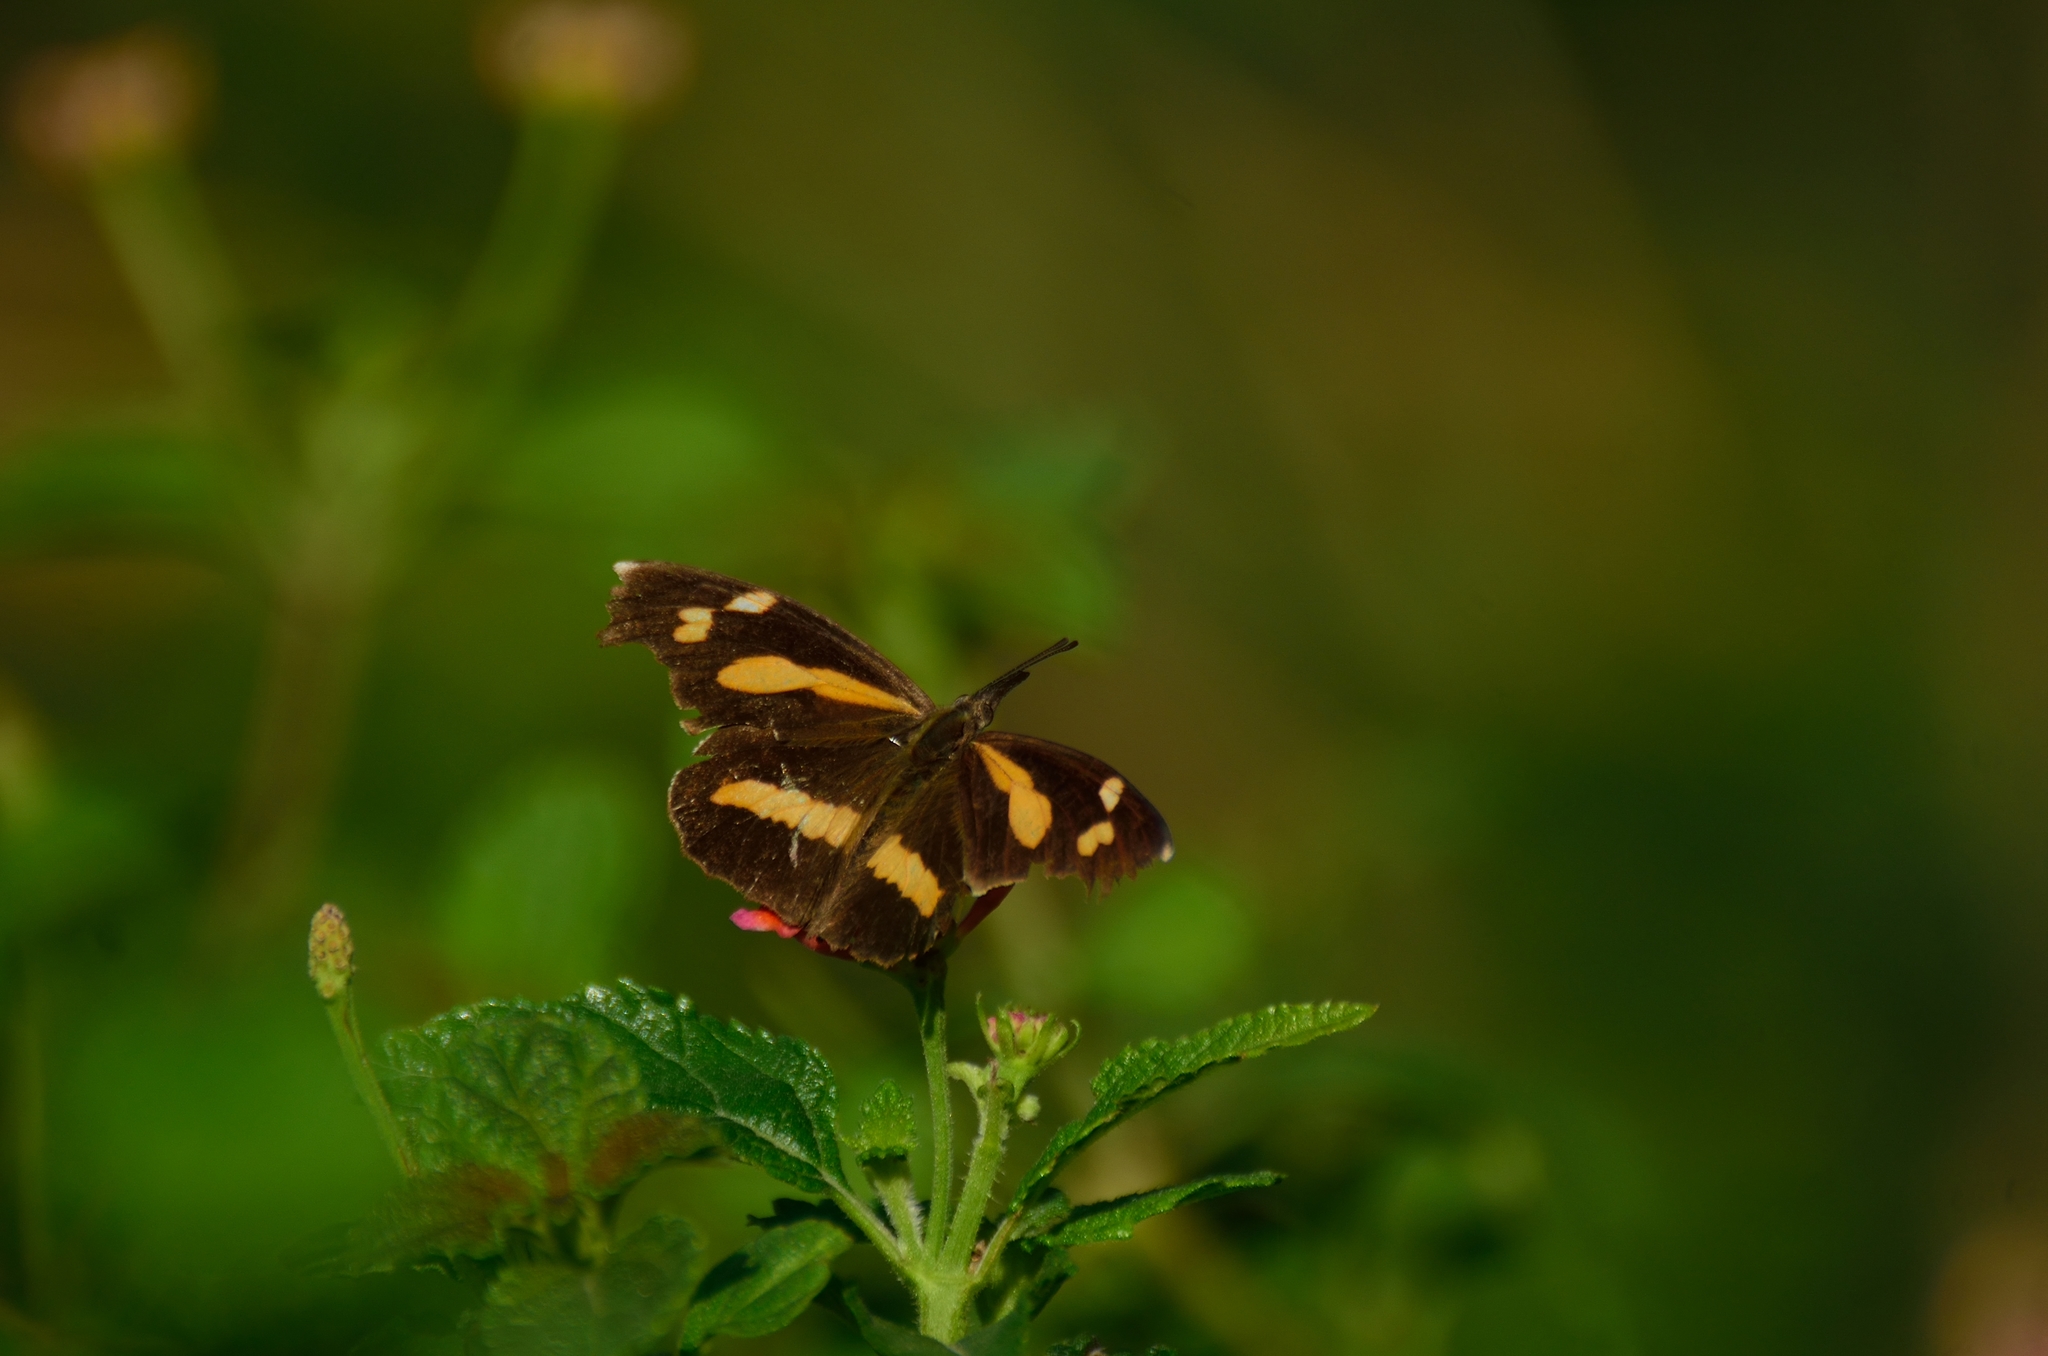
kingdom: Animalia
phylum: Arthropoda
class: Insecta
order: Lepidoptera
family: Nymphalidae
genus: Libythea
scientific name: Libythea myrrha
